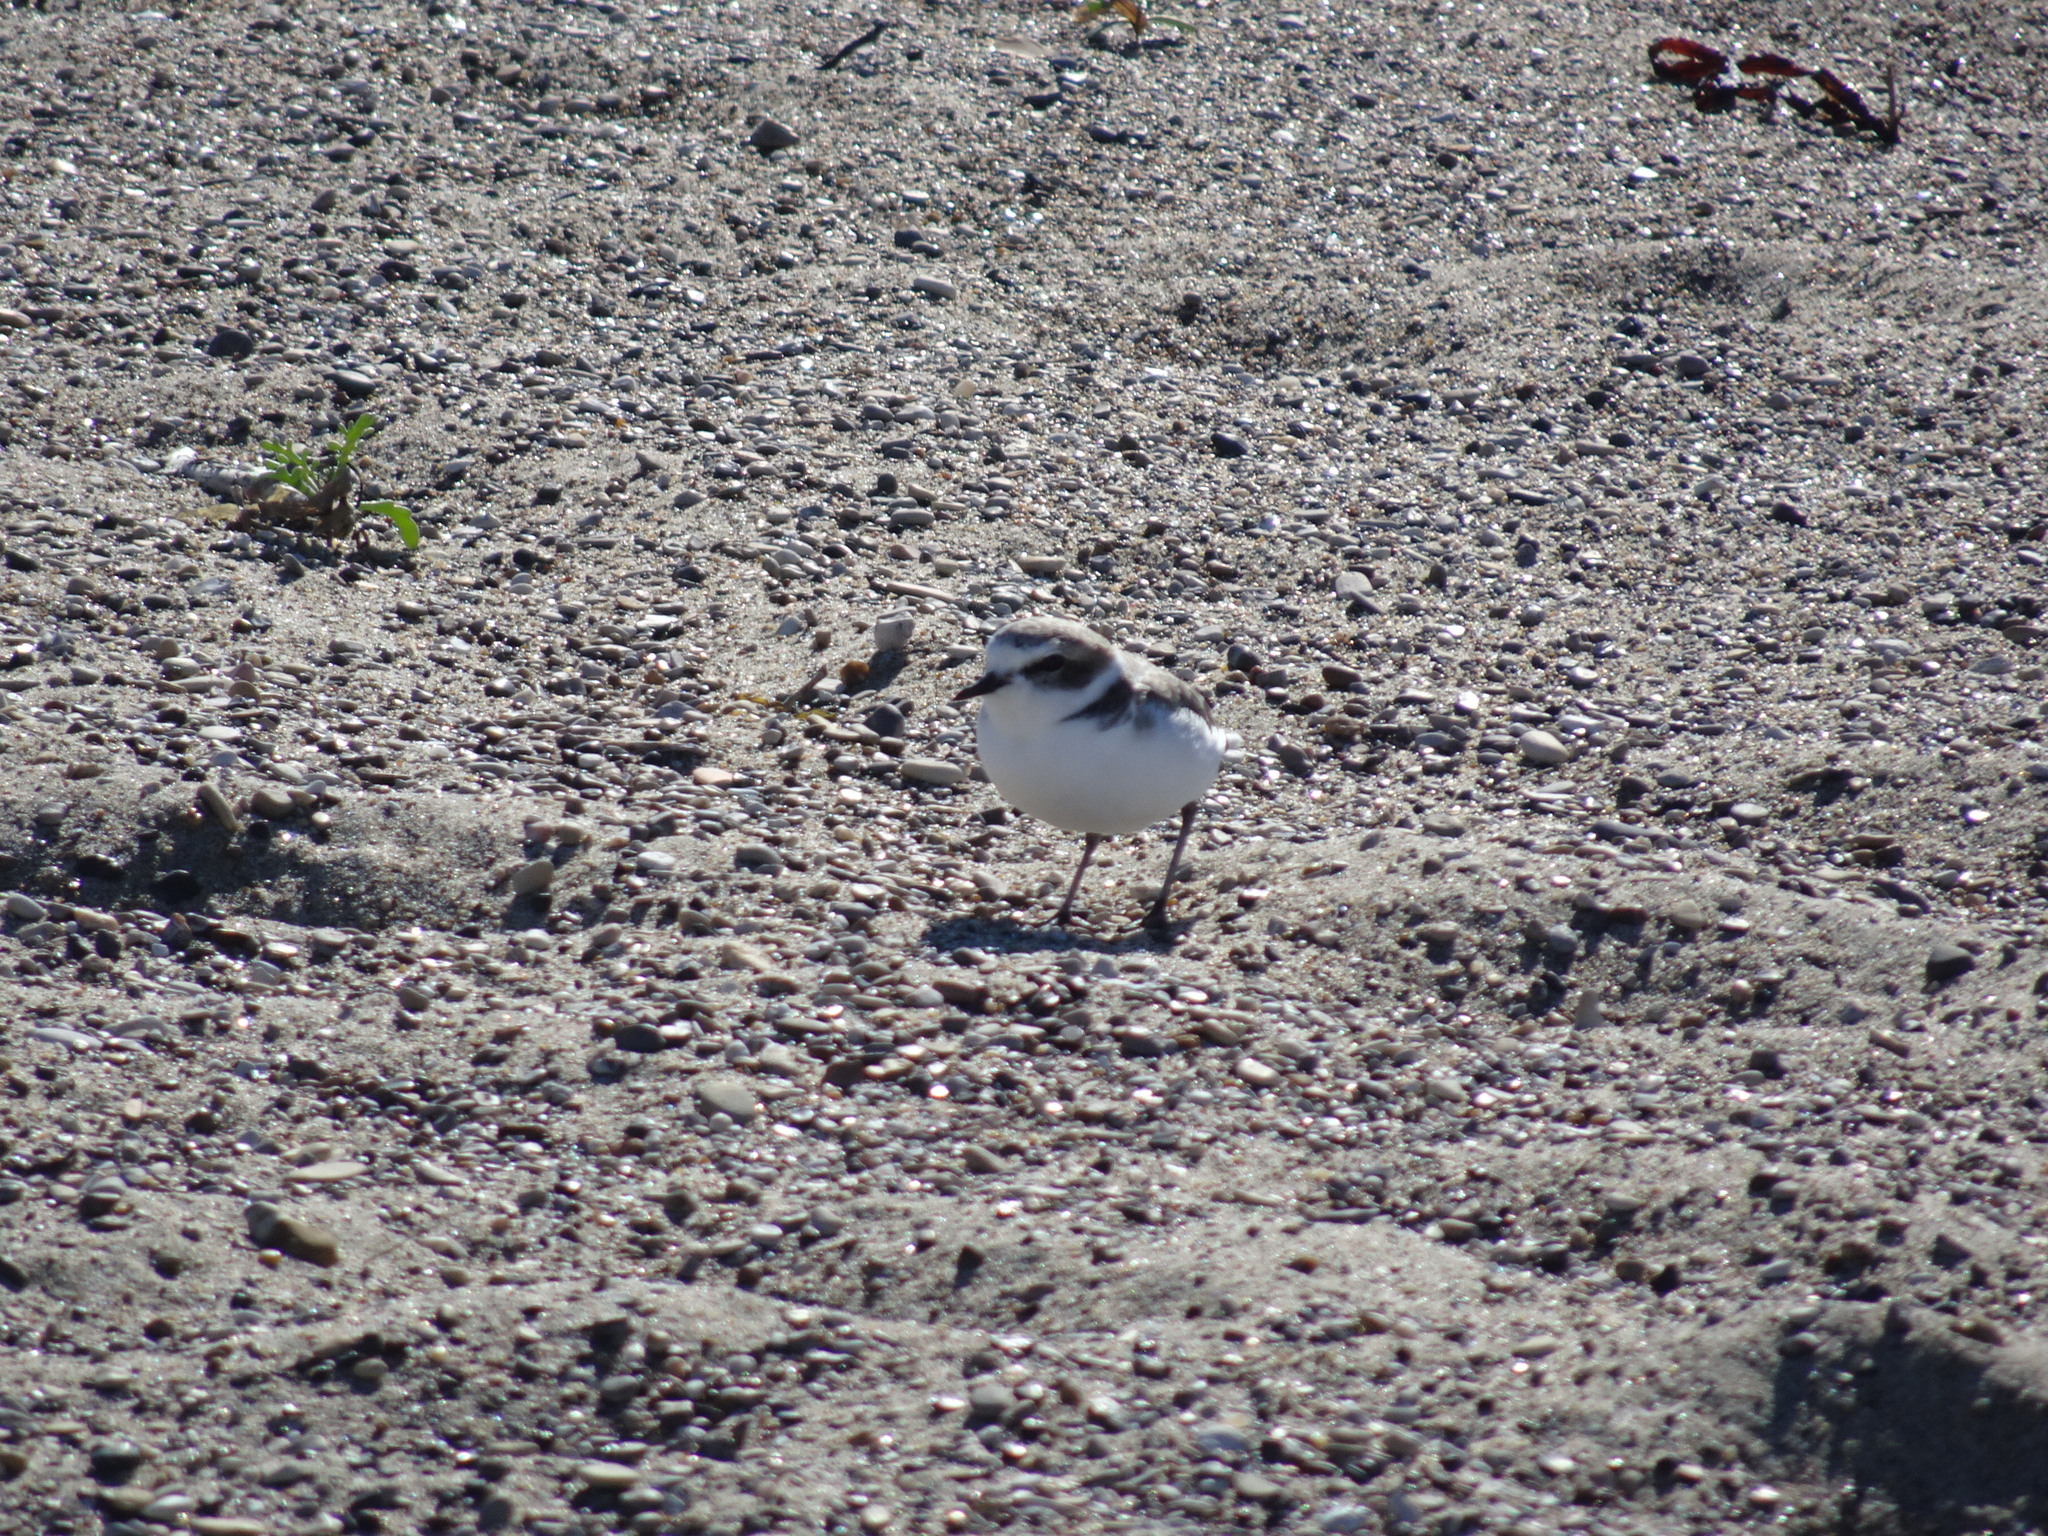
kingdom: Animalia
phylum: Chordata
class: Aves
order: Charadriiformes
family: Charadriidae
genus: Anarhynchus
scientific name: Anarhynchus
